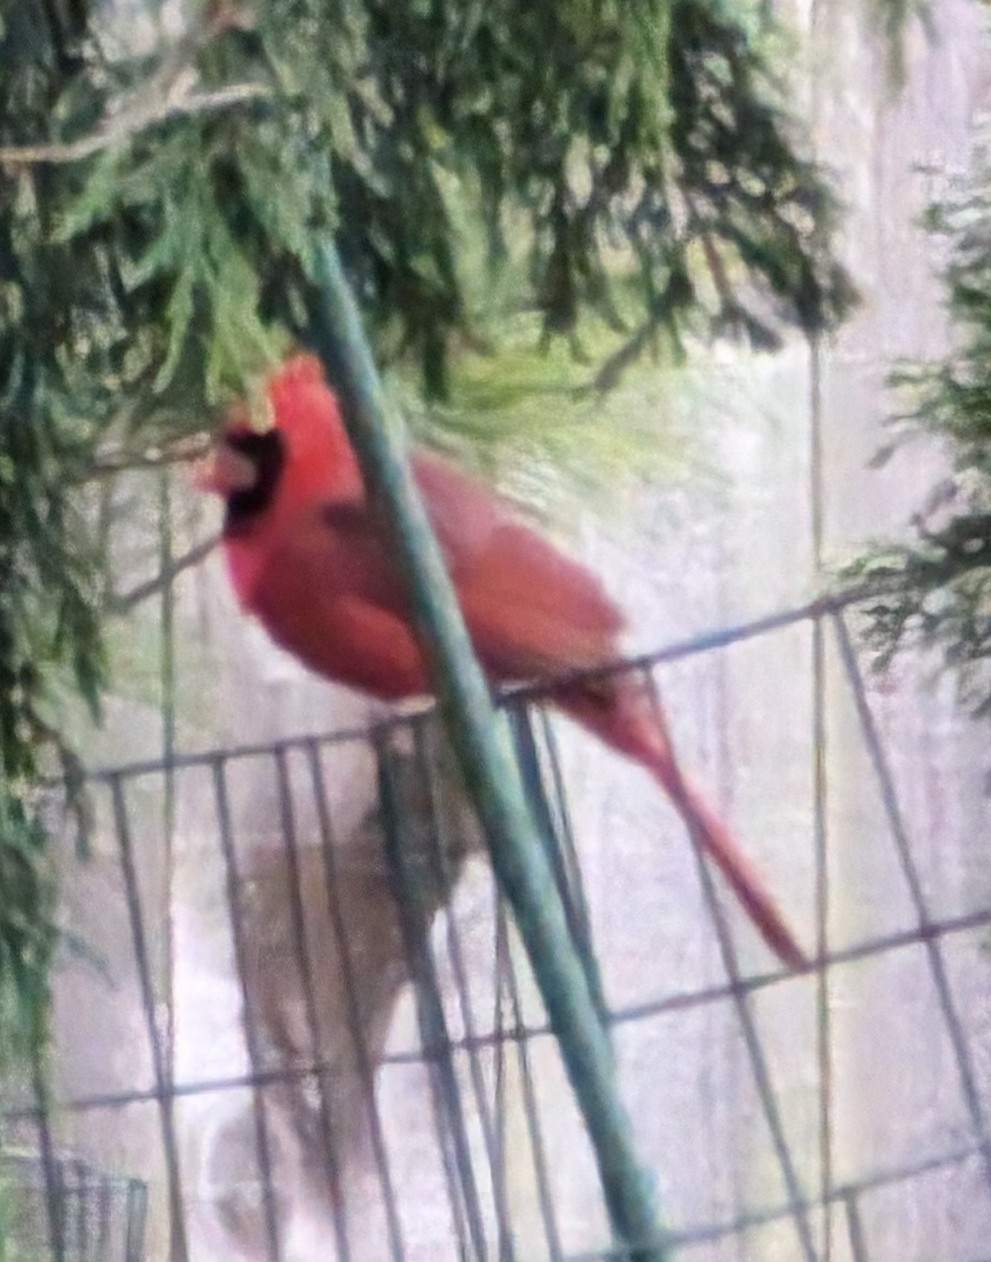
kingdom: Animalia
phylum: Chordata
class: Aves
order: Passeriformes
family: Cardinalidae
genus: Cardinalis
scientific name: Cardinalis cardinalis
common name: Northern cardinal
